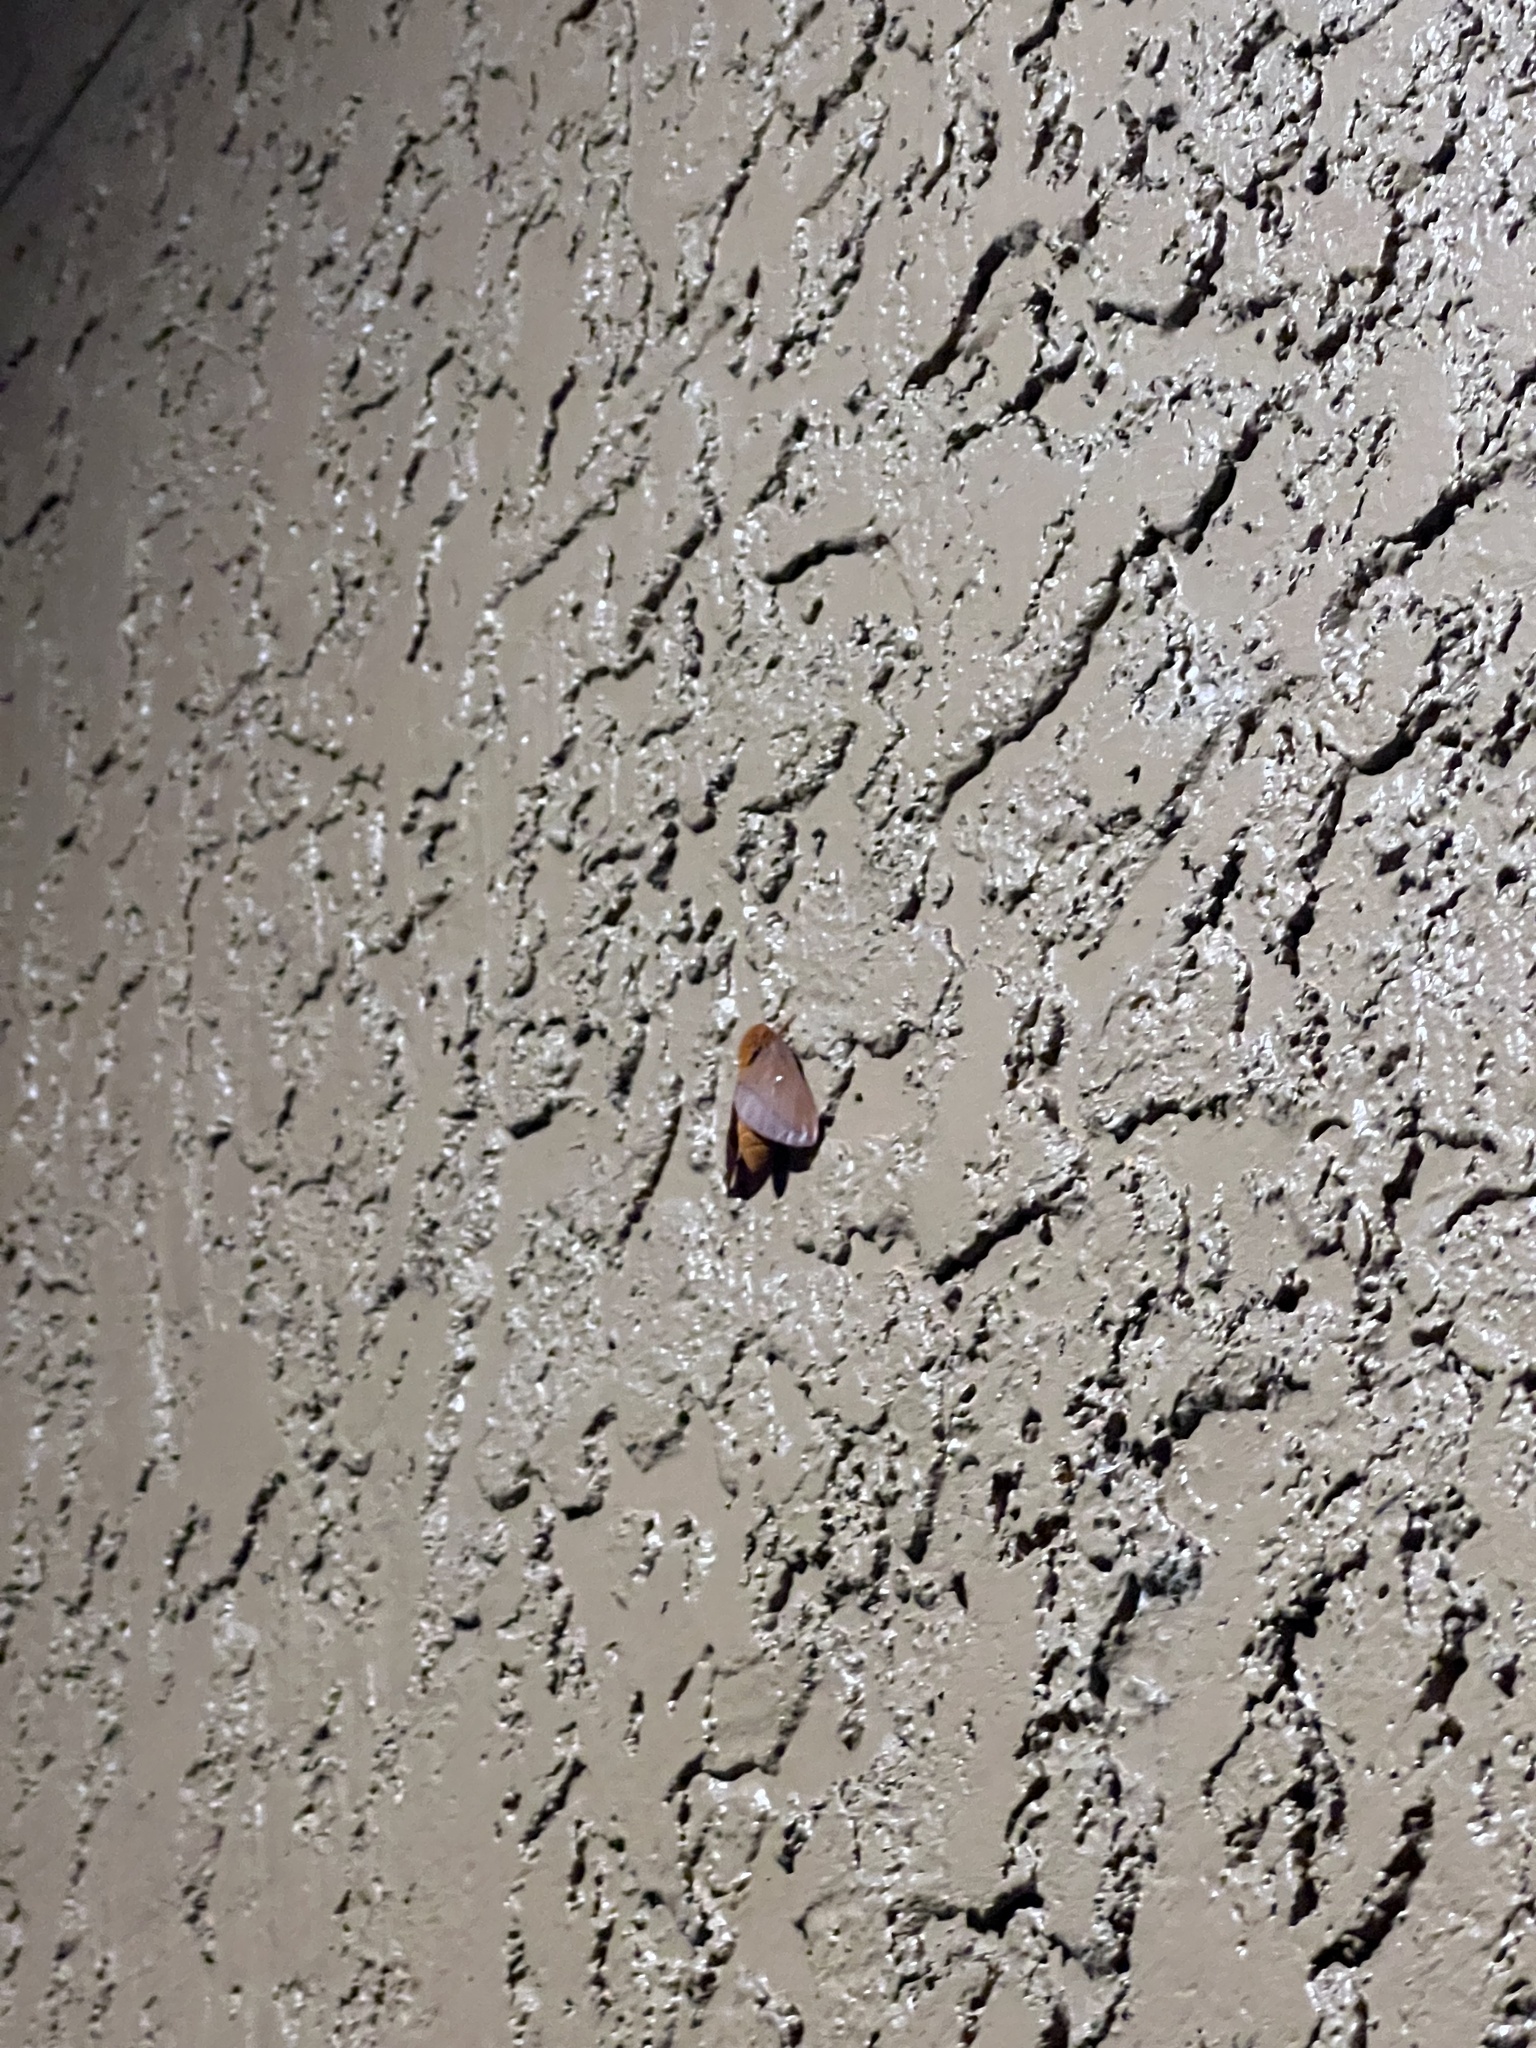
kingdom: Animalia
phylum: Arthropoda
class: Insecta
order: Lepidoptera
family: Saturniidae
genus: Anisota
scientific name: Anisota virginiensis
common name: Pink striped oakworm moth
